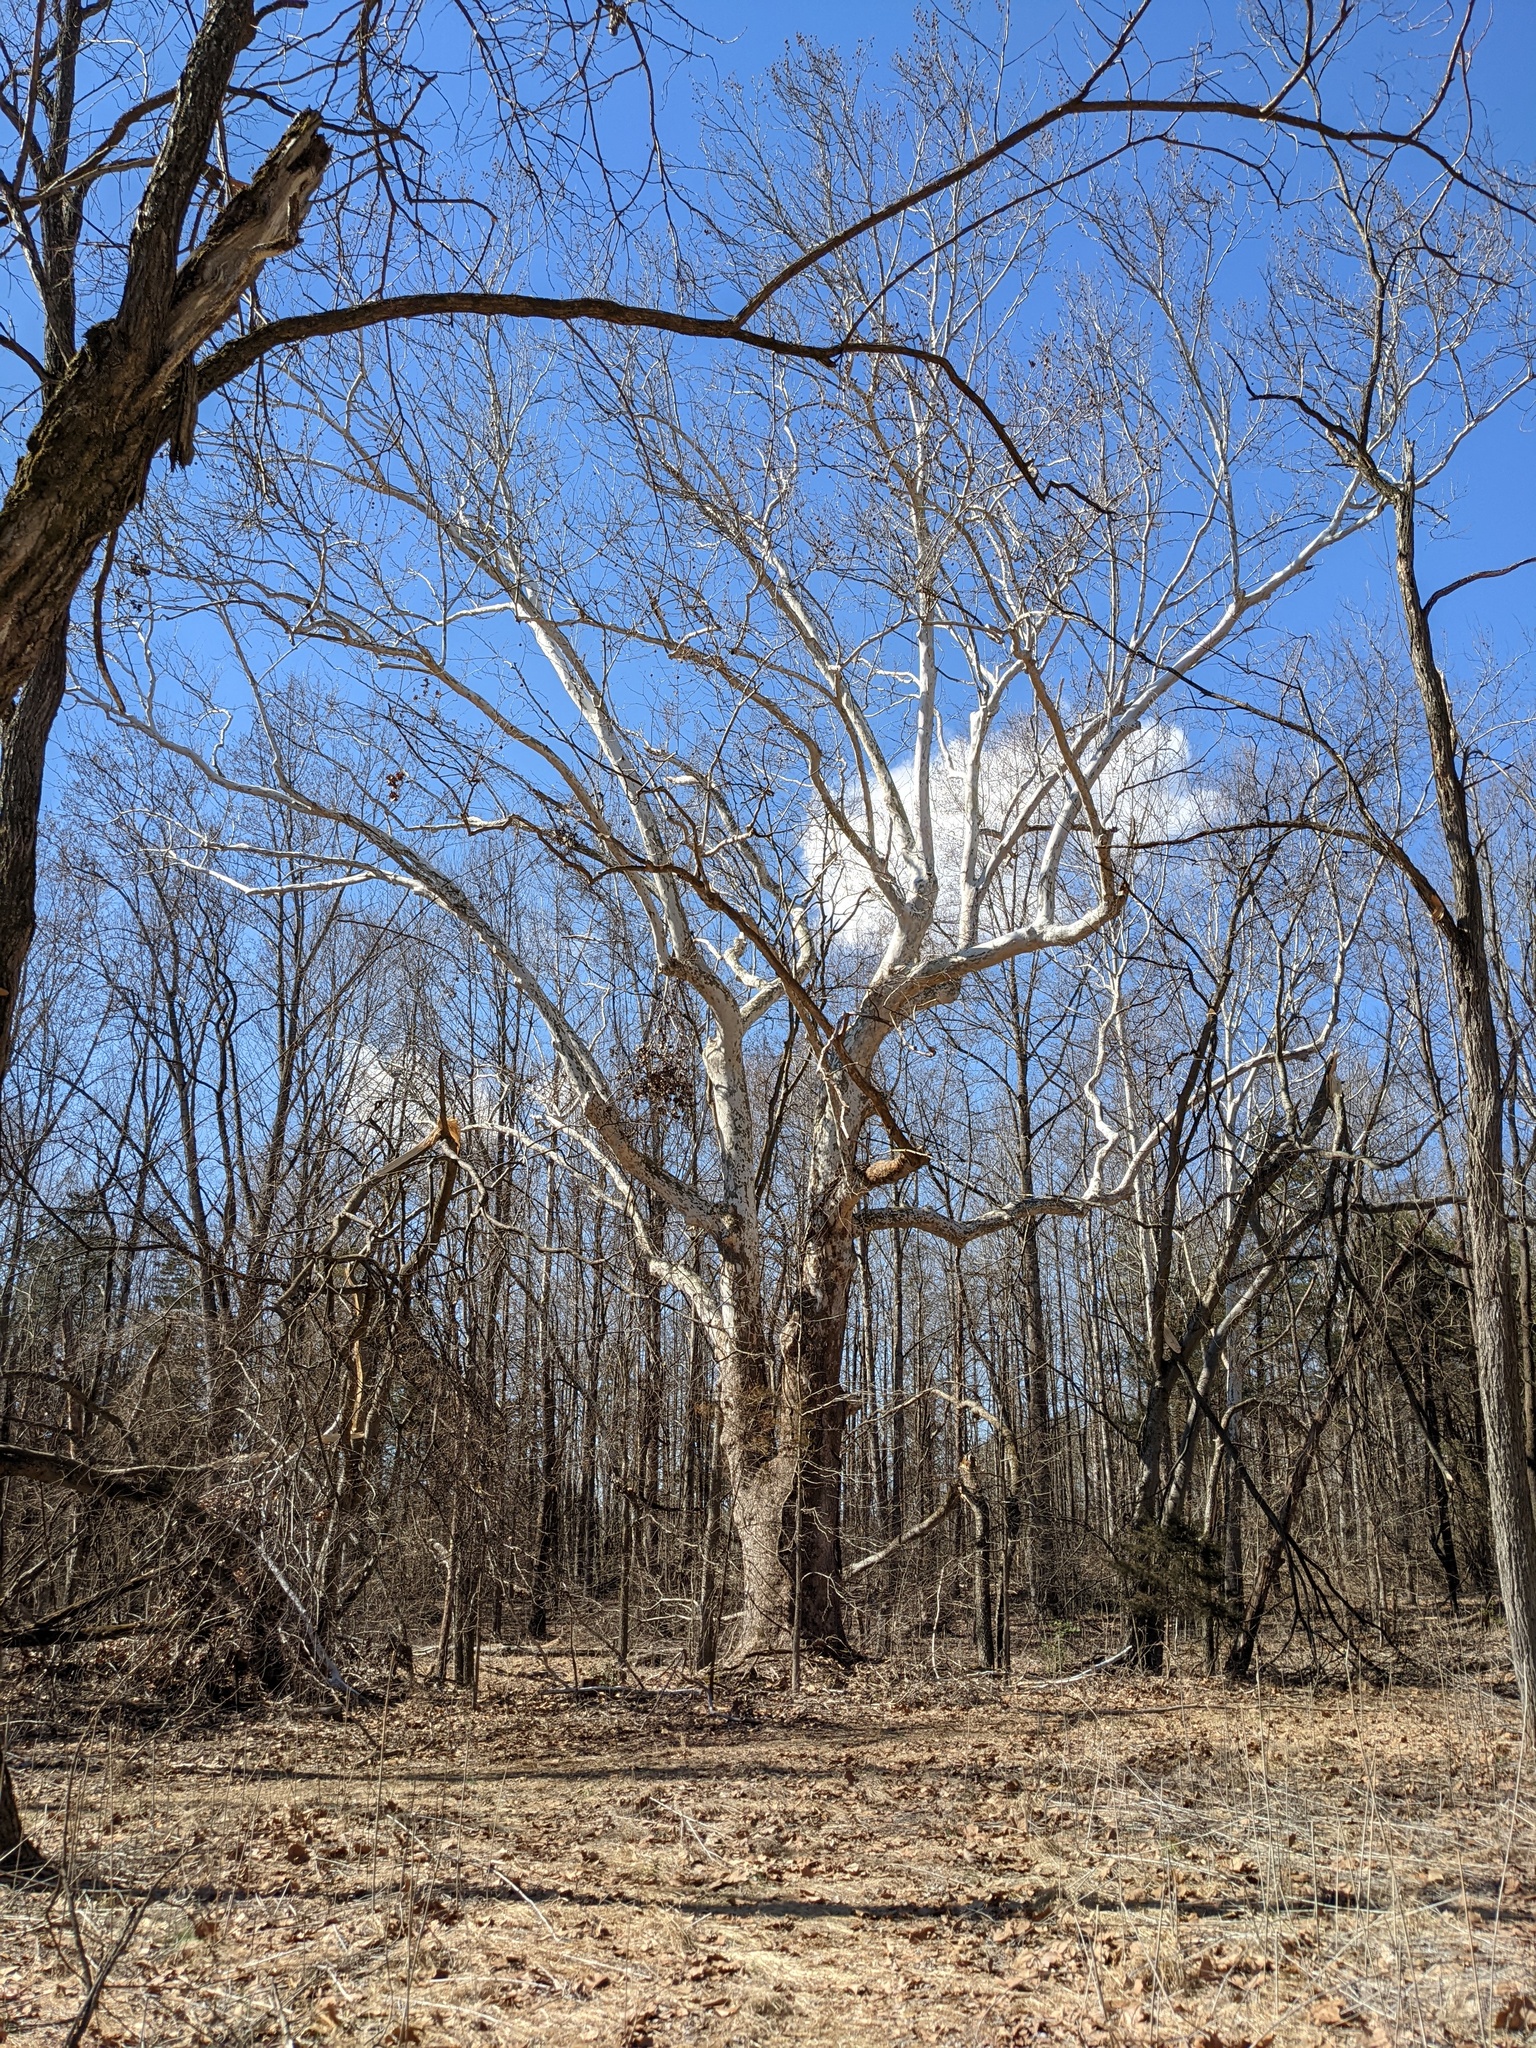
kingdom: Plantae
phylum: Tracheophyta
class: Magnoliopsida
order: Proteales
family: Platanaceae
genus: Platanus
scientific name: Platanus occidentalis
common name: American sycamore
